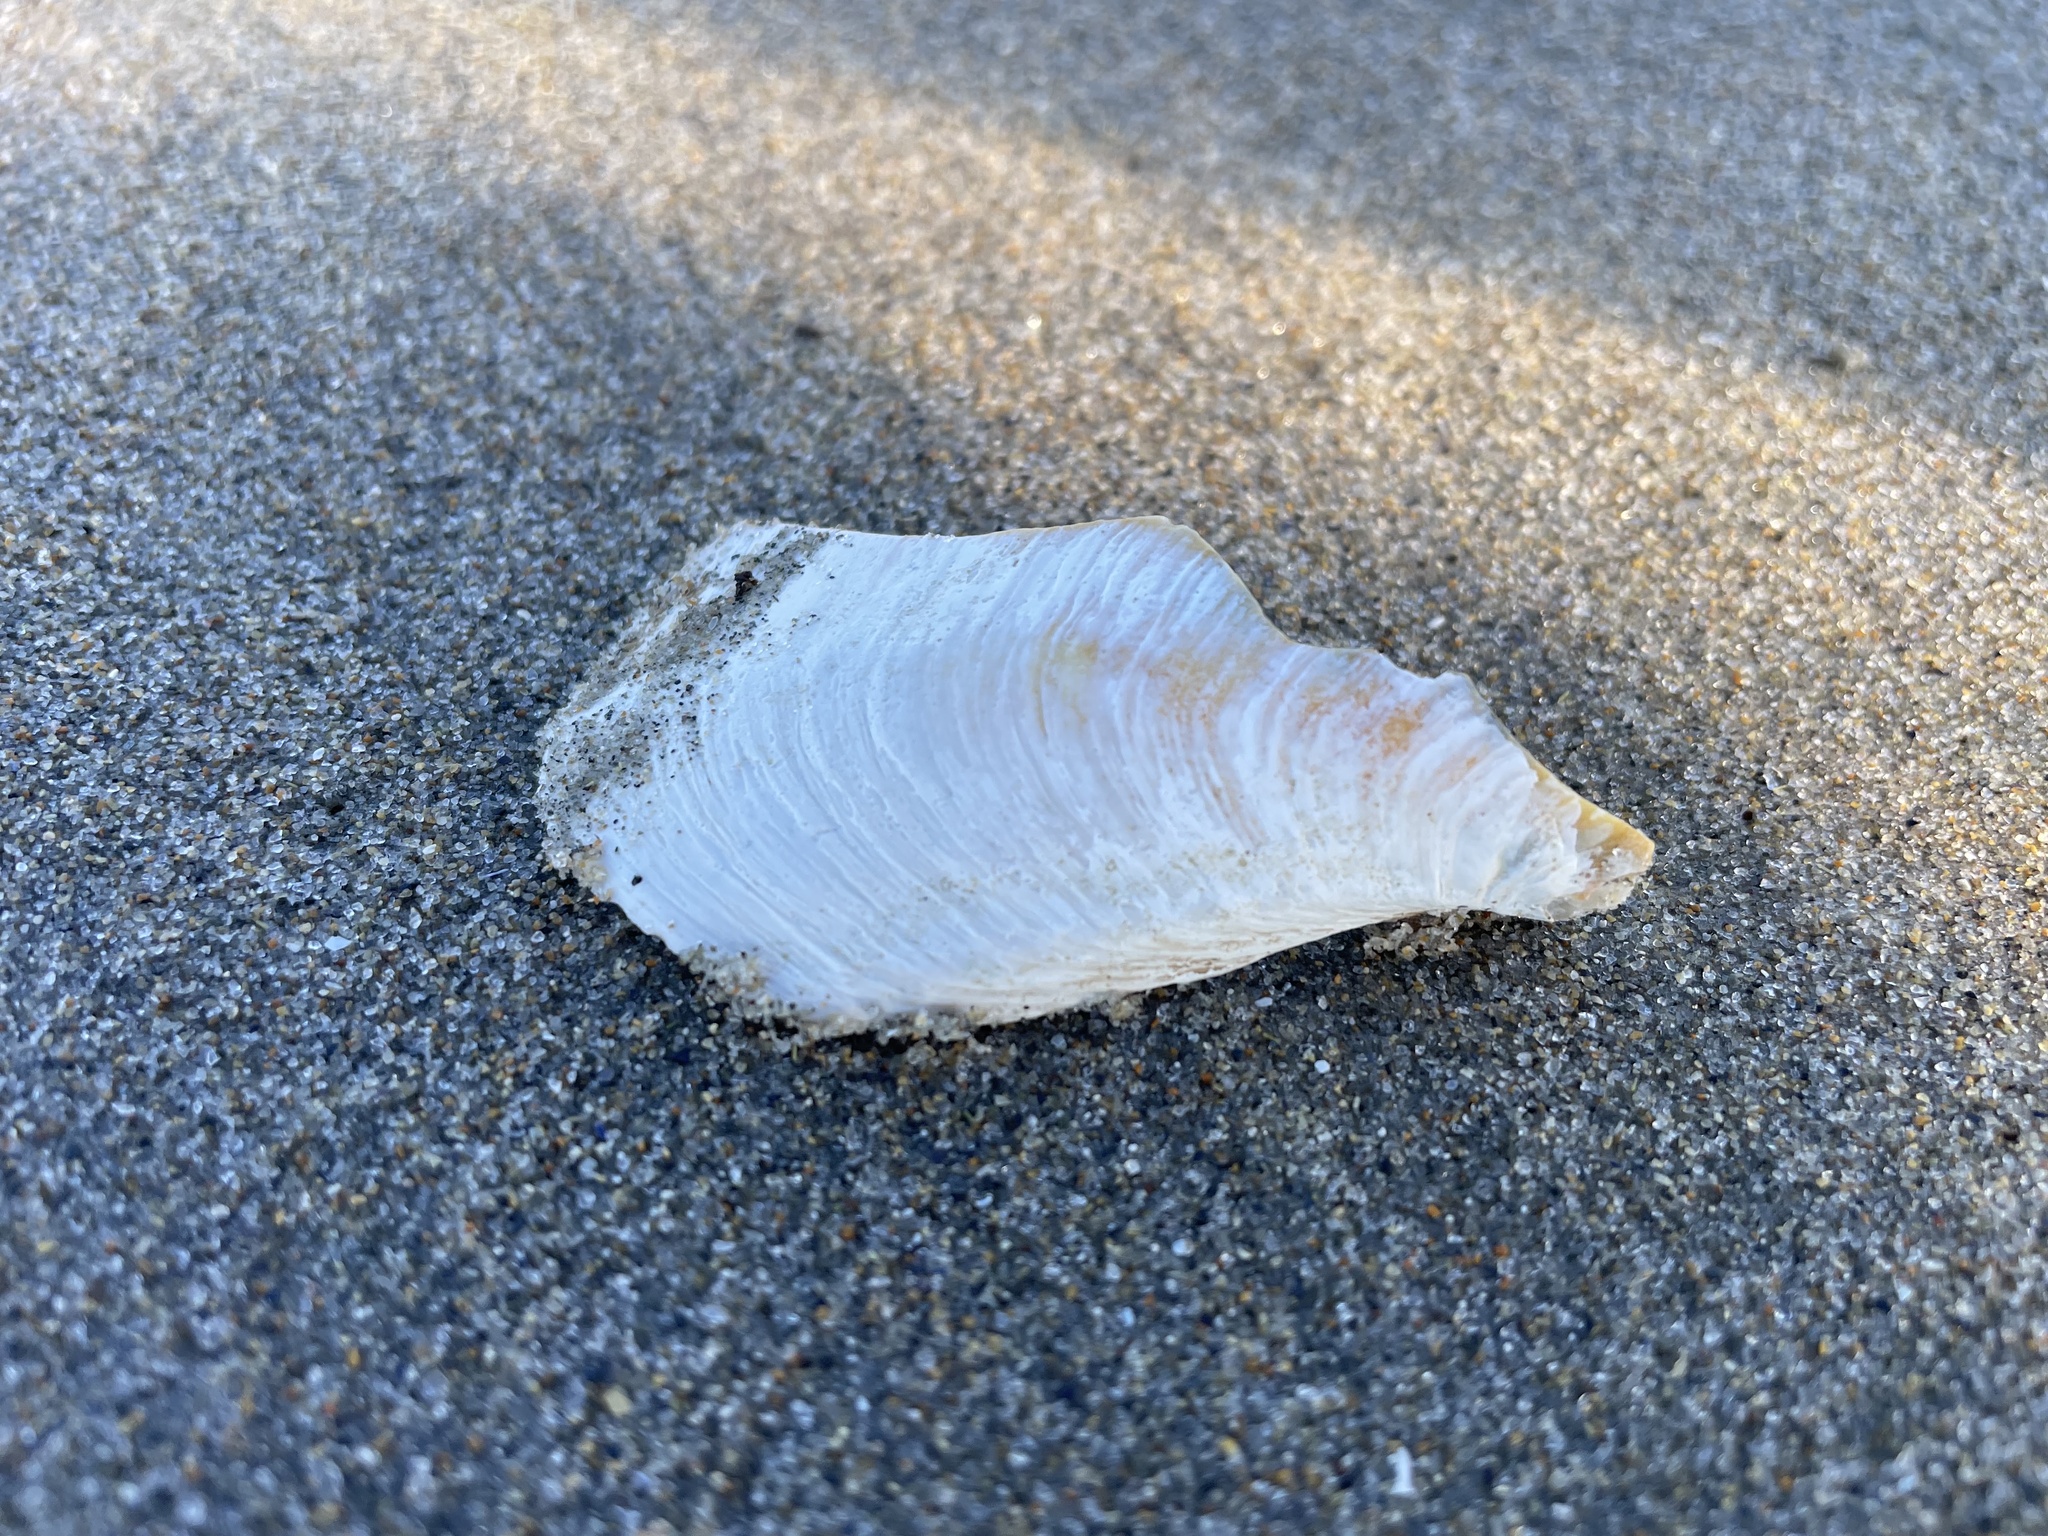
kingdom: Animalia
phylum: Mollusca
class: Bivalvia
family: Thraciidae
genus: Thracia
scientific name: Thracia conradi
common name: Conrad thracia
